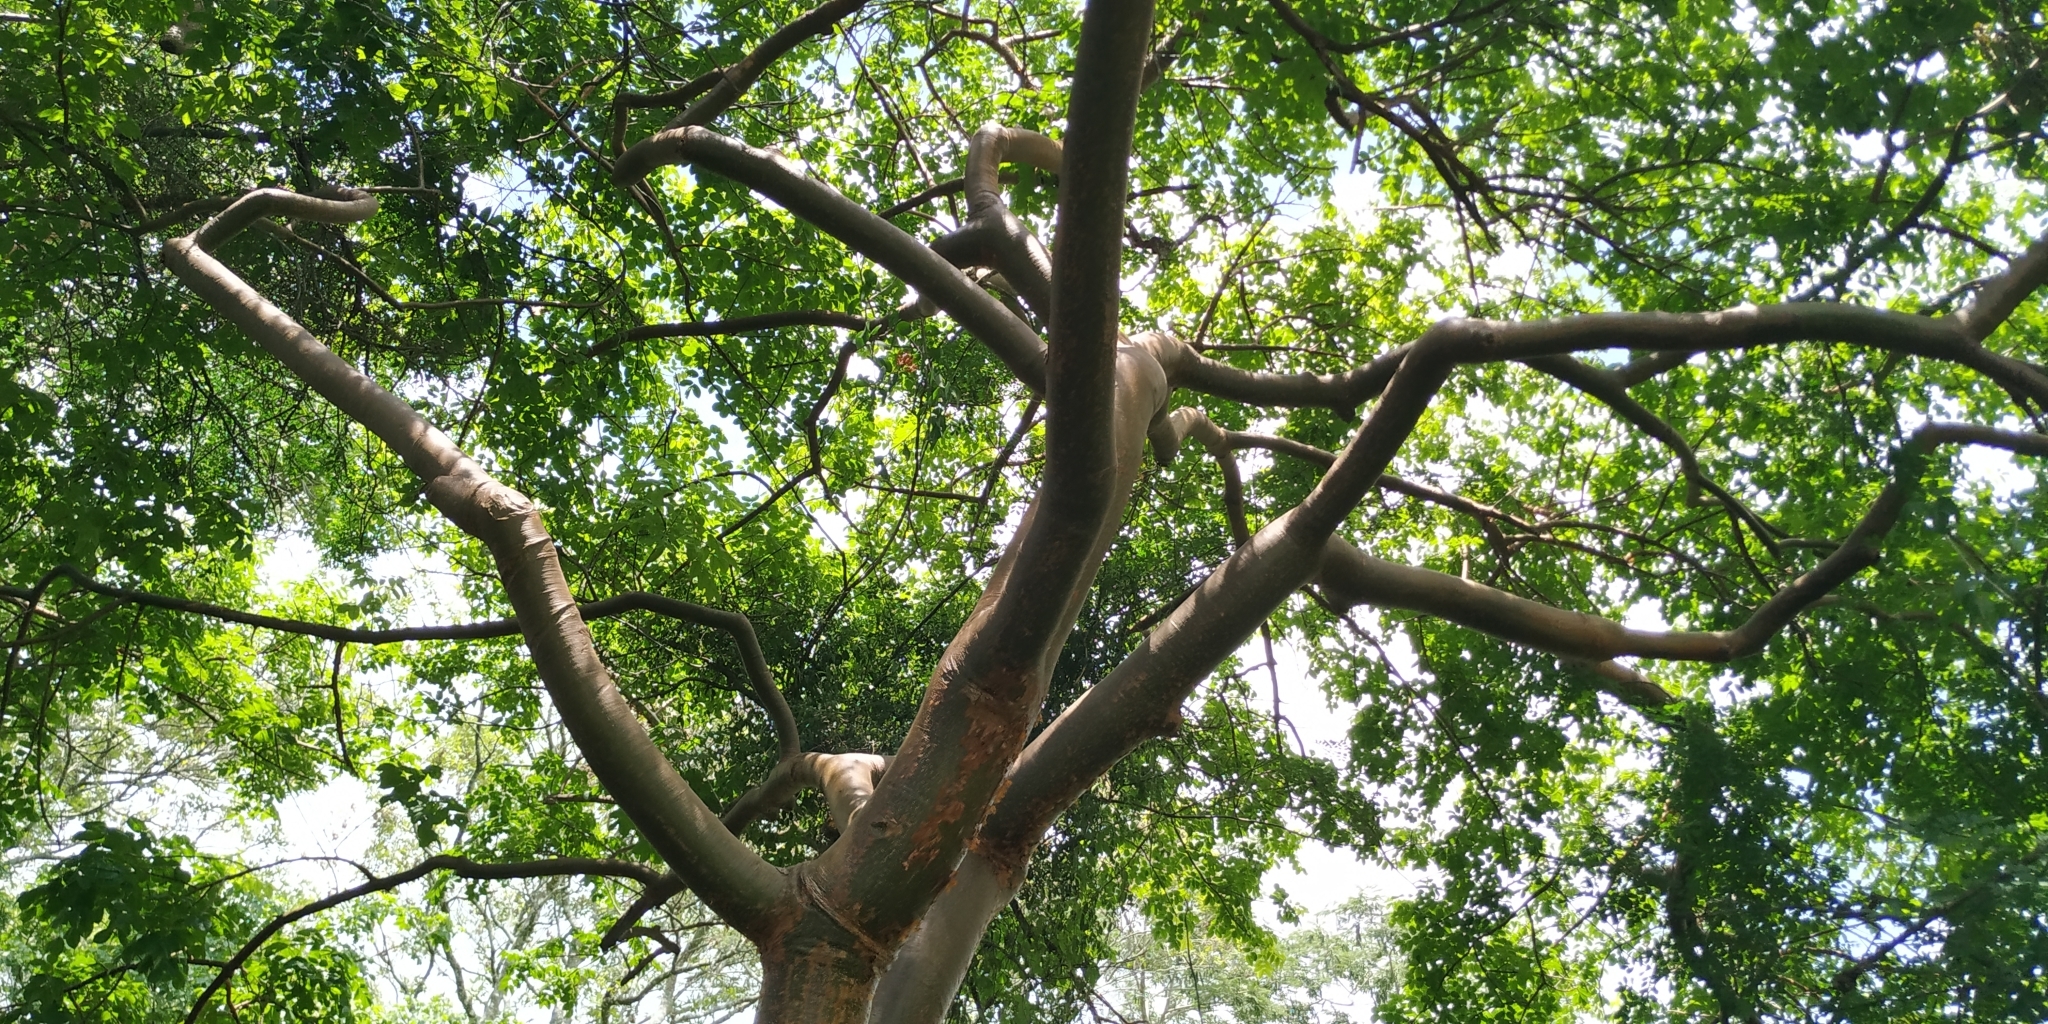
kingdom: Plantae
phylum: Tracheophyta
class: Magnoliopsida
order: Sapindales
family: Burseraceae
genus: Bursera
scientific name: Bursera simaruba
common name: Turpentine tree
